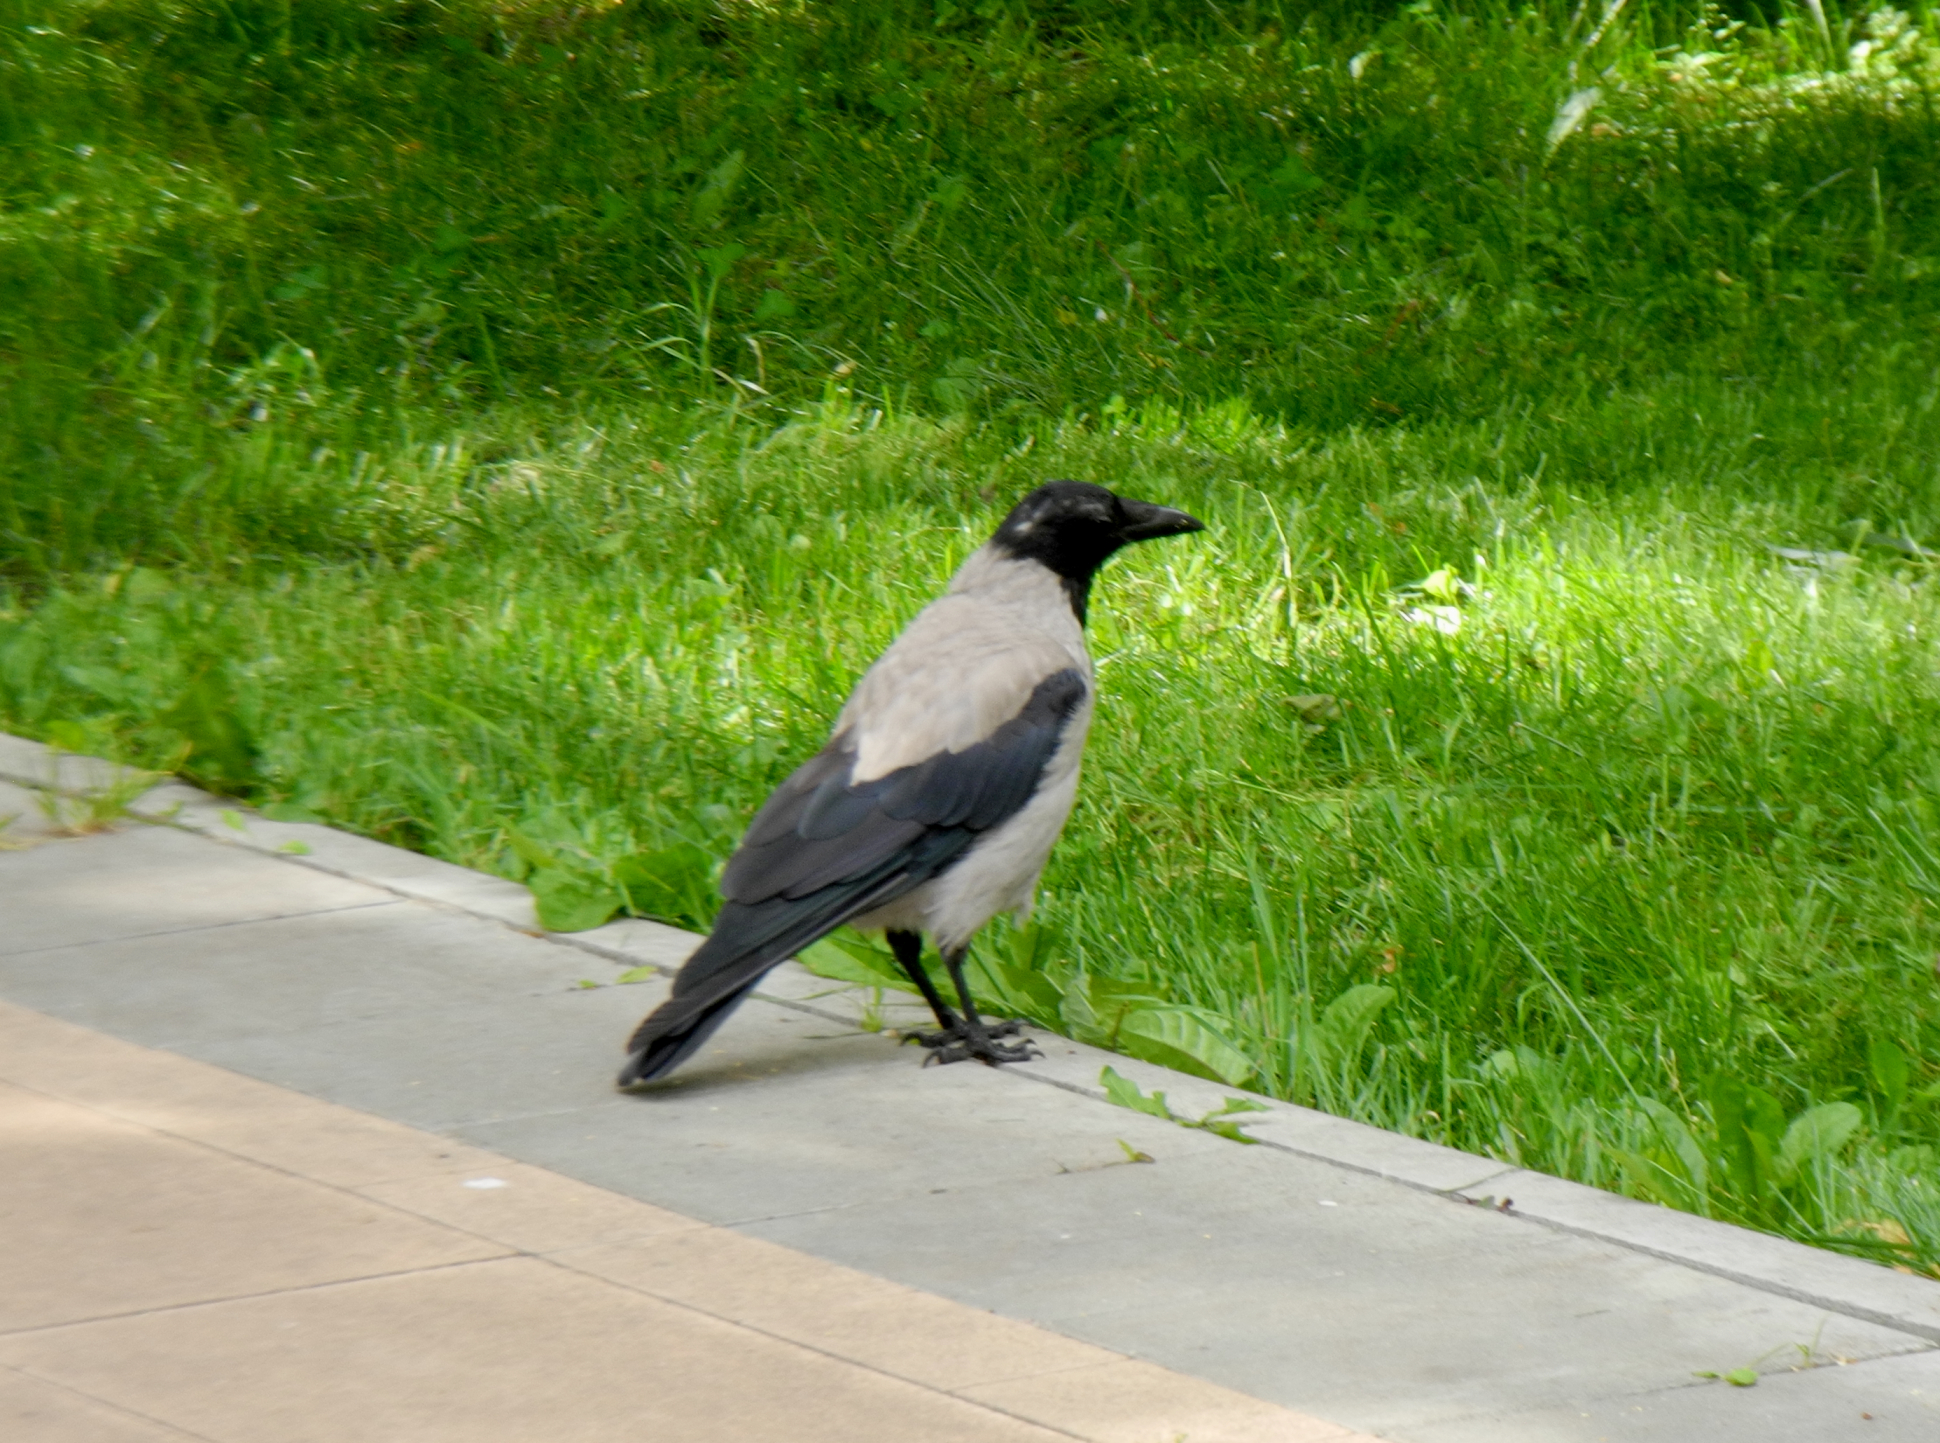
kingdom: Animalia
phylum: Chordata
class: Aves
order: Passeriformes
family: Corvidae
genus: Corvus
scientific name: Corvus cornix
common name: Hooded crow
